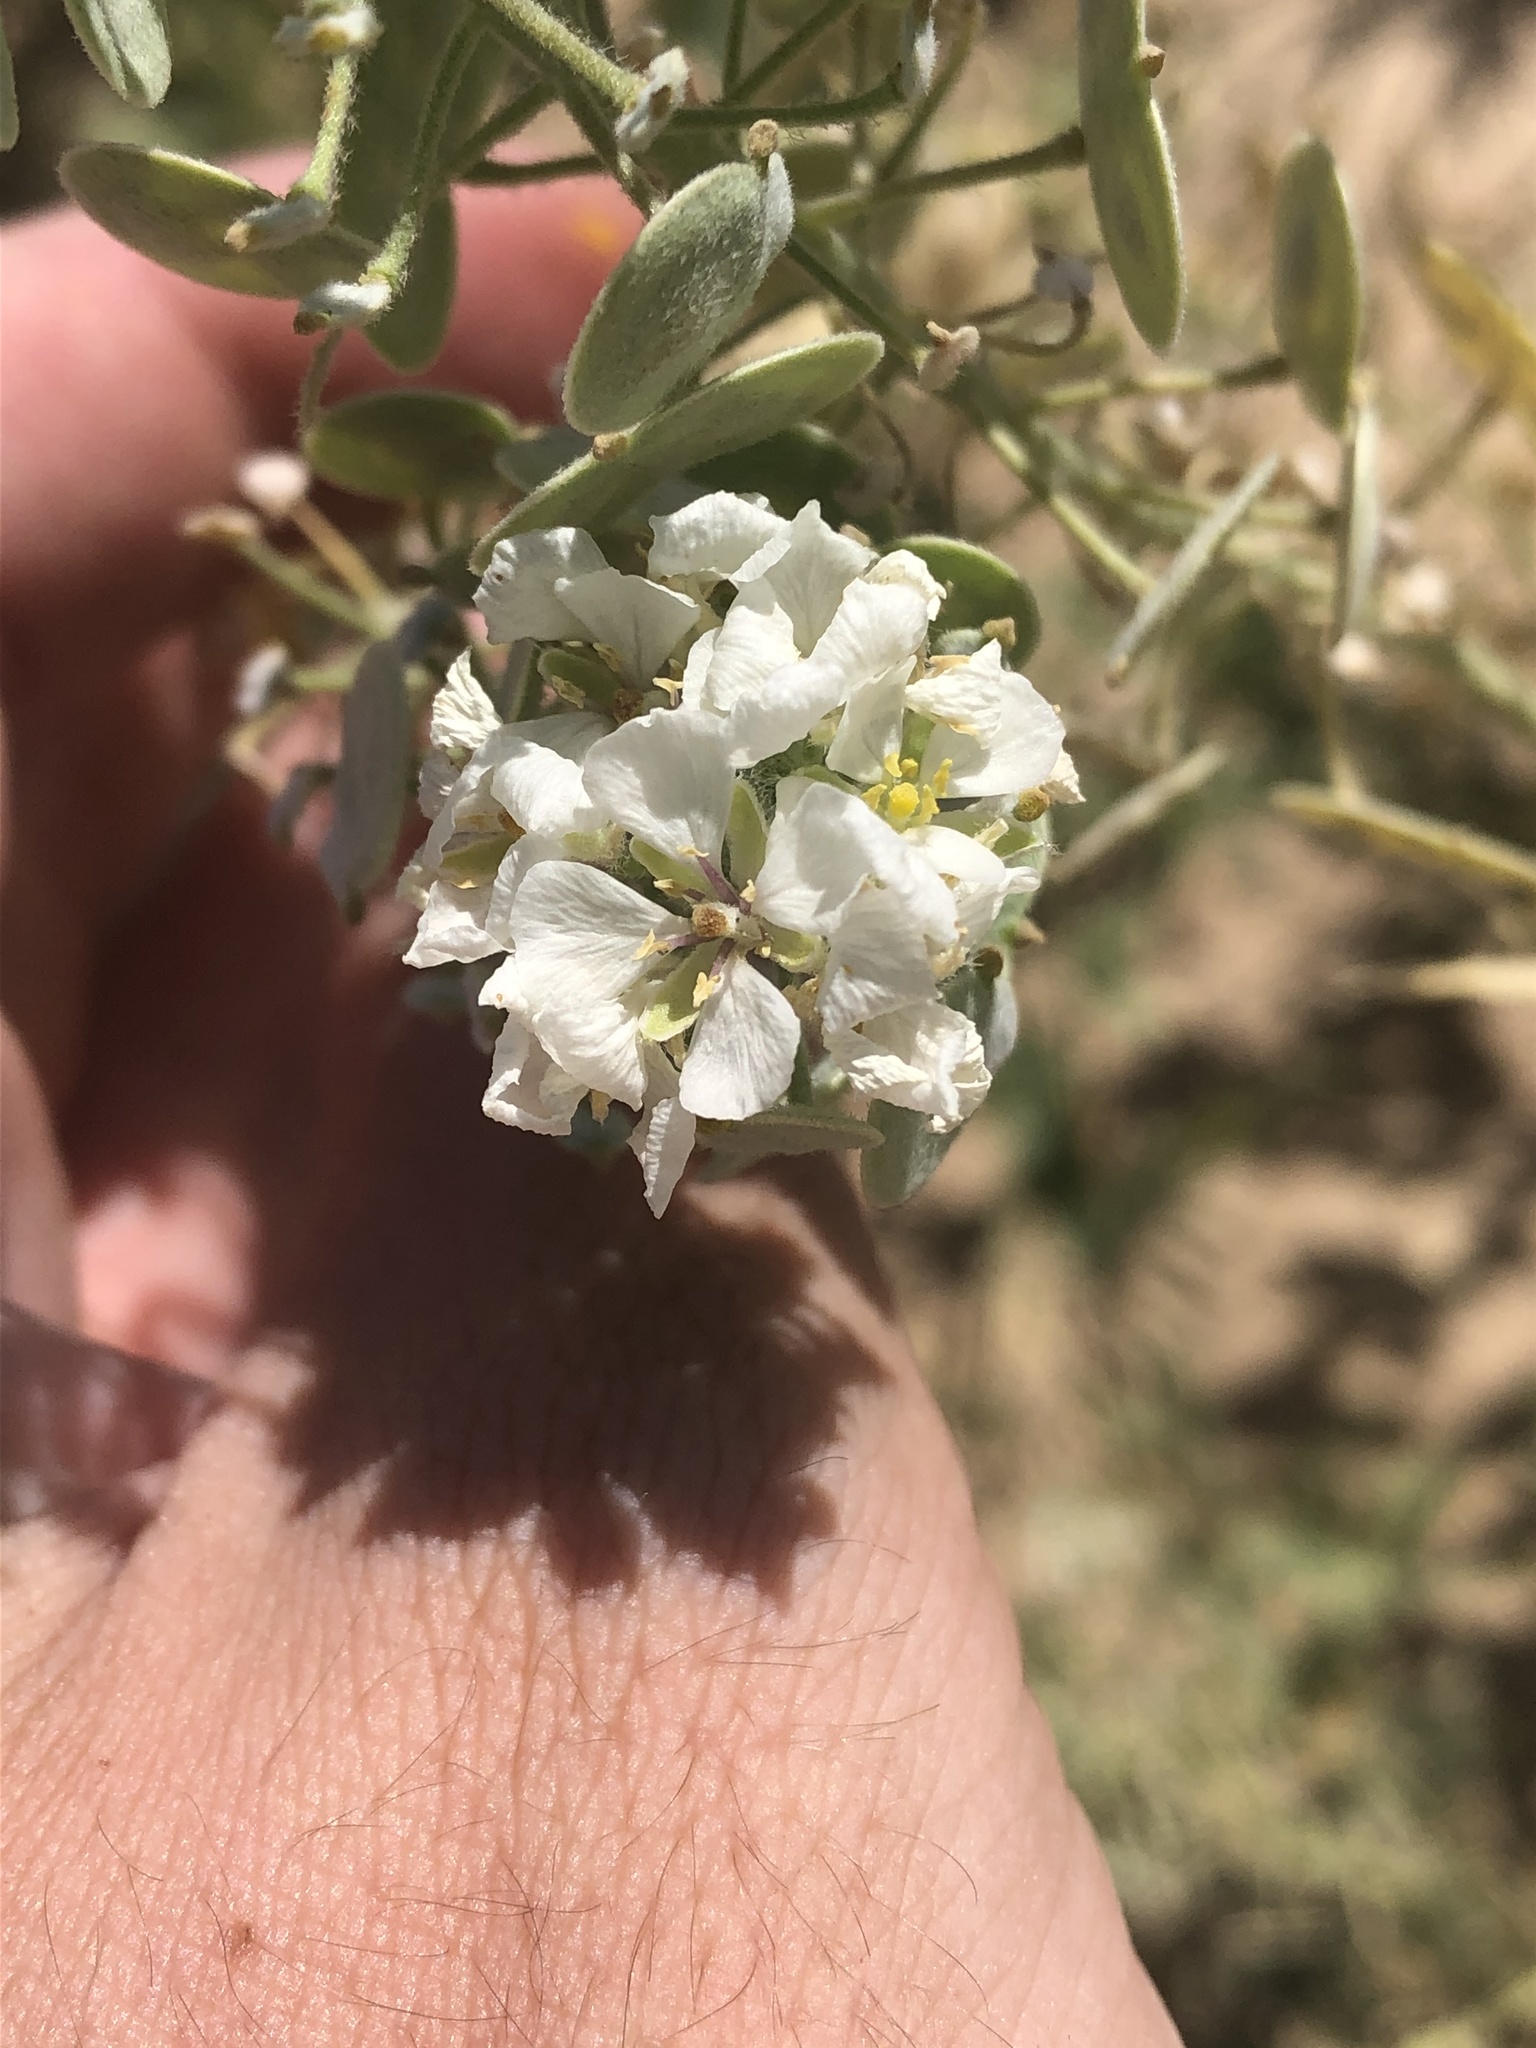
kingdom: Plantae
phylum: Tracheophyta
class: Magnoliopsida
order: Brassicales
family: Brassicaceae
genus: Dimorphocarpa
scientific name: Dimorphocarpa wislizenii
